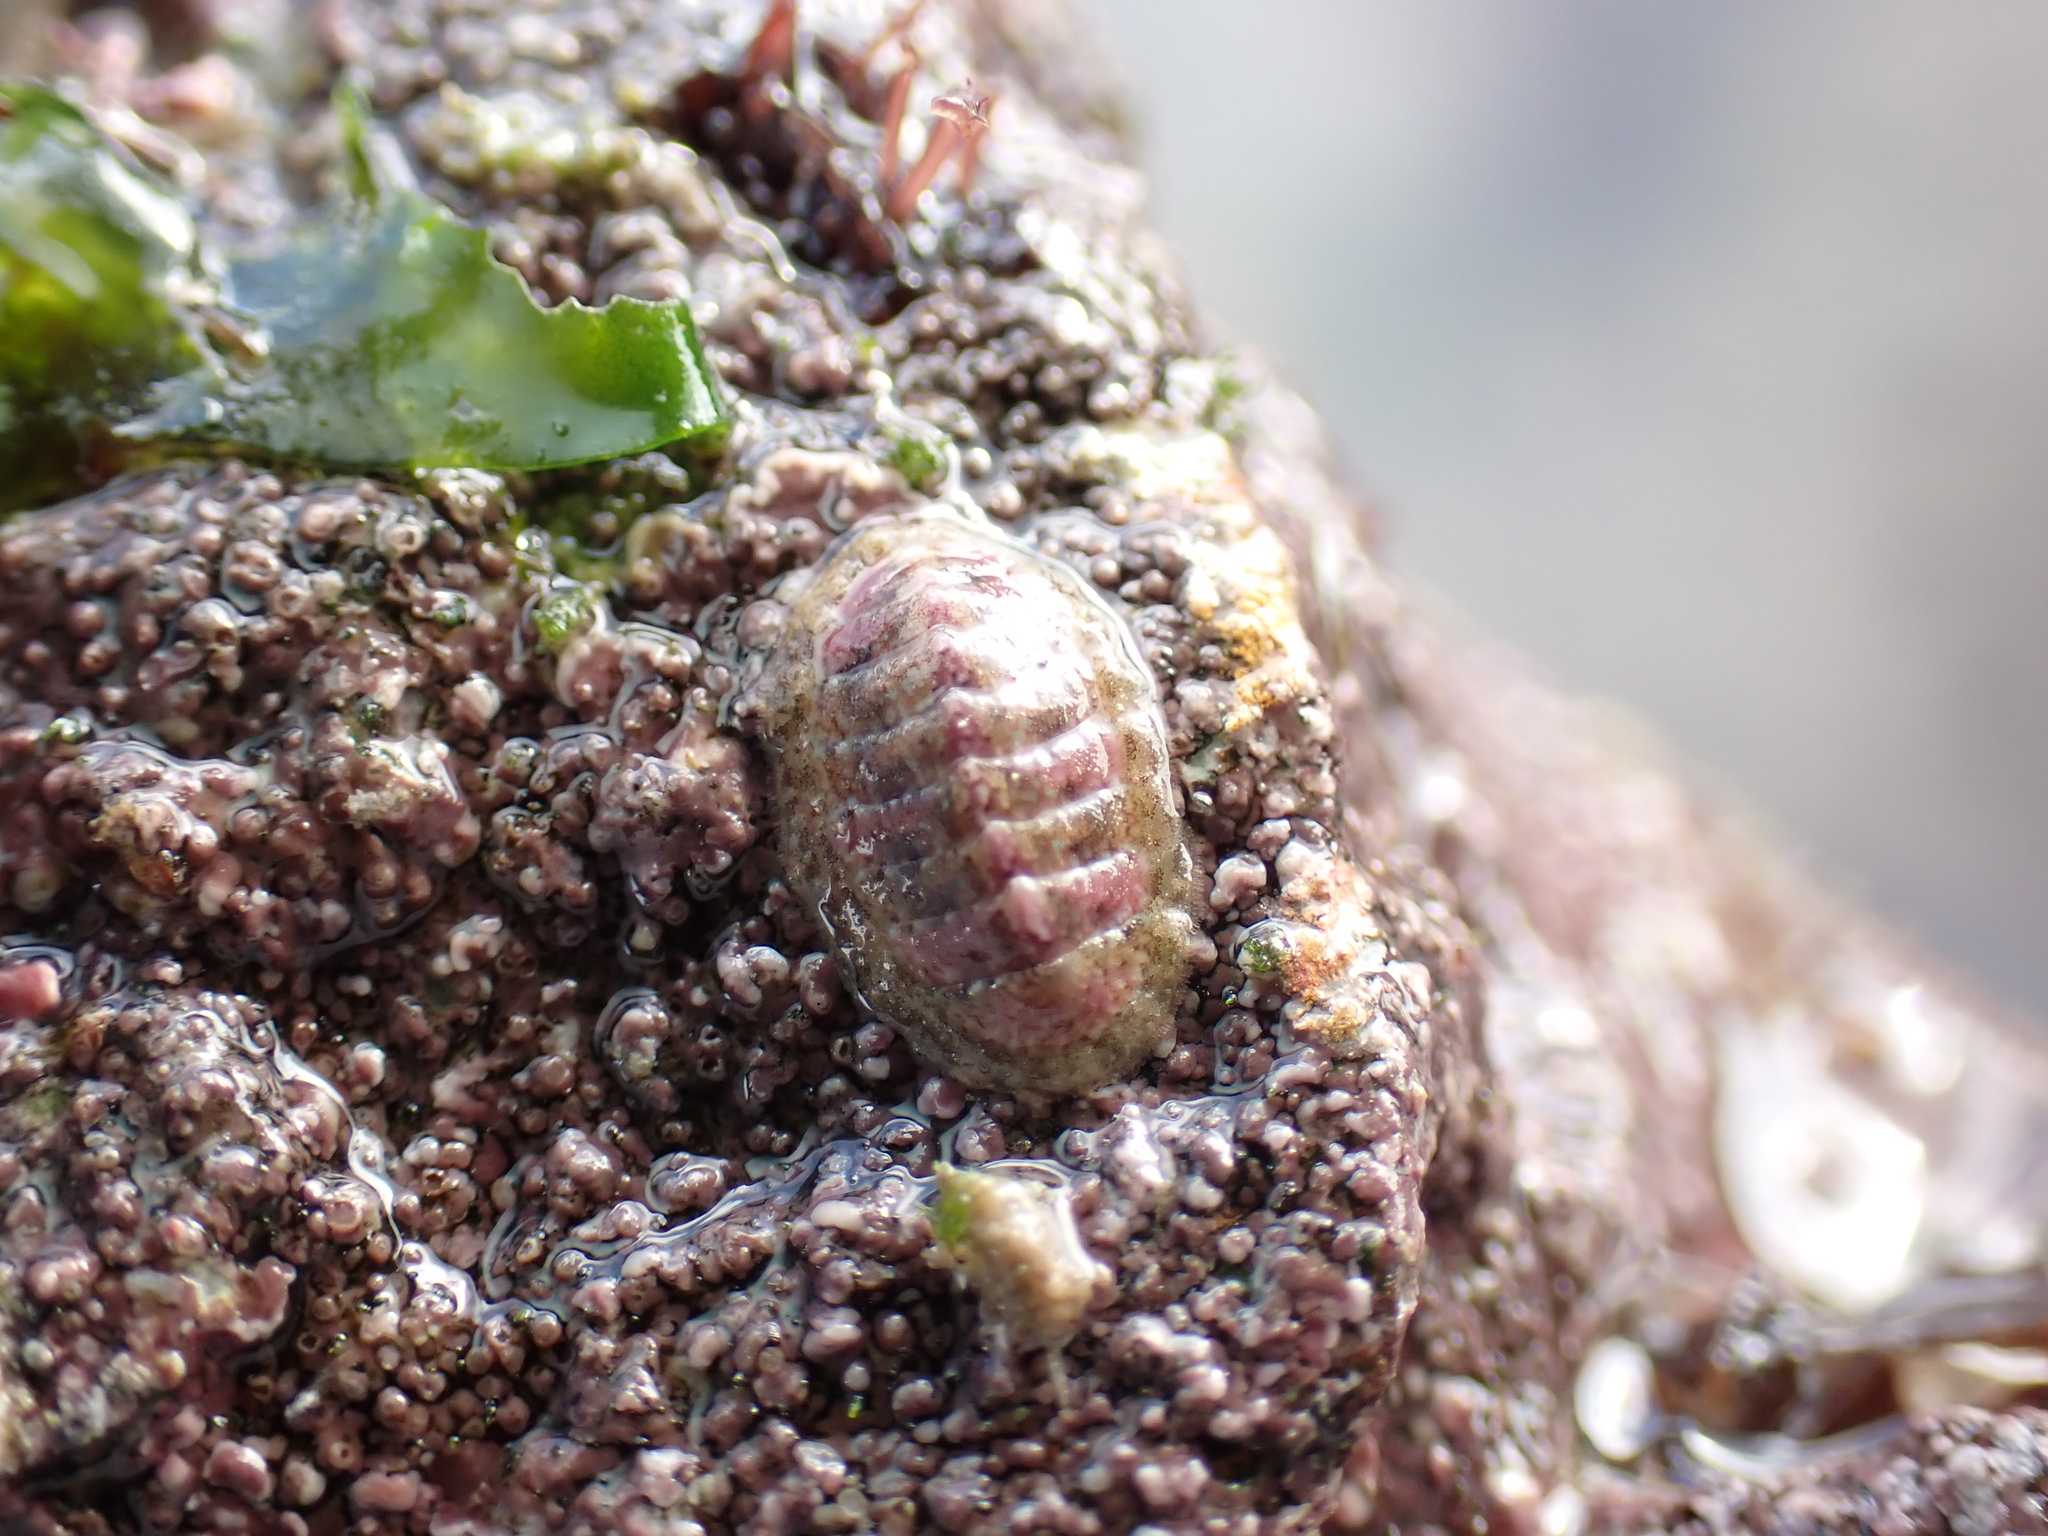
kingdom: Animalia
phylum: Mollusca
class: Polyplacophora
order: Chitonida
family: Tonicellidae
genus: Lepidochitona
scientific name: Lepidochitona cinerea
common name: Cinereous chiton
